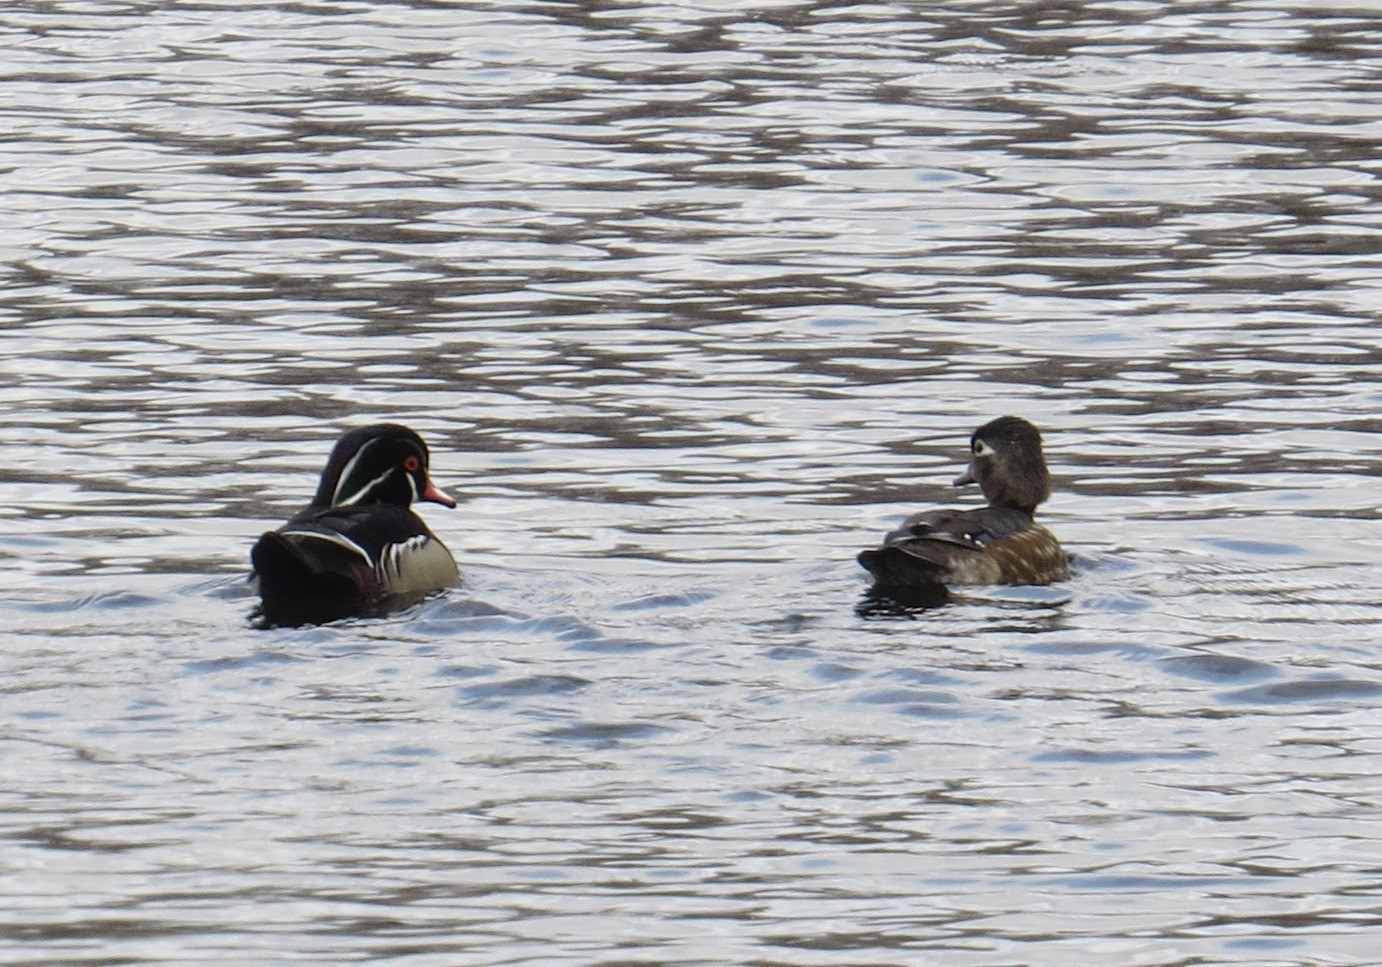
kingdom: Animalia
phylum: Chordata
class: Aves
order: Anseriformes
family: Anatidae
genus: Aix
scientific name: Aix sponsa
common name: Wood duck
